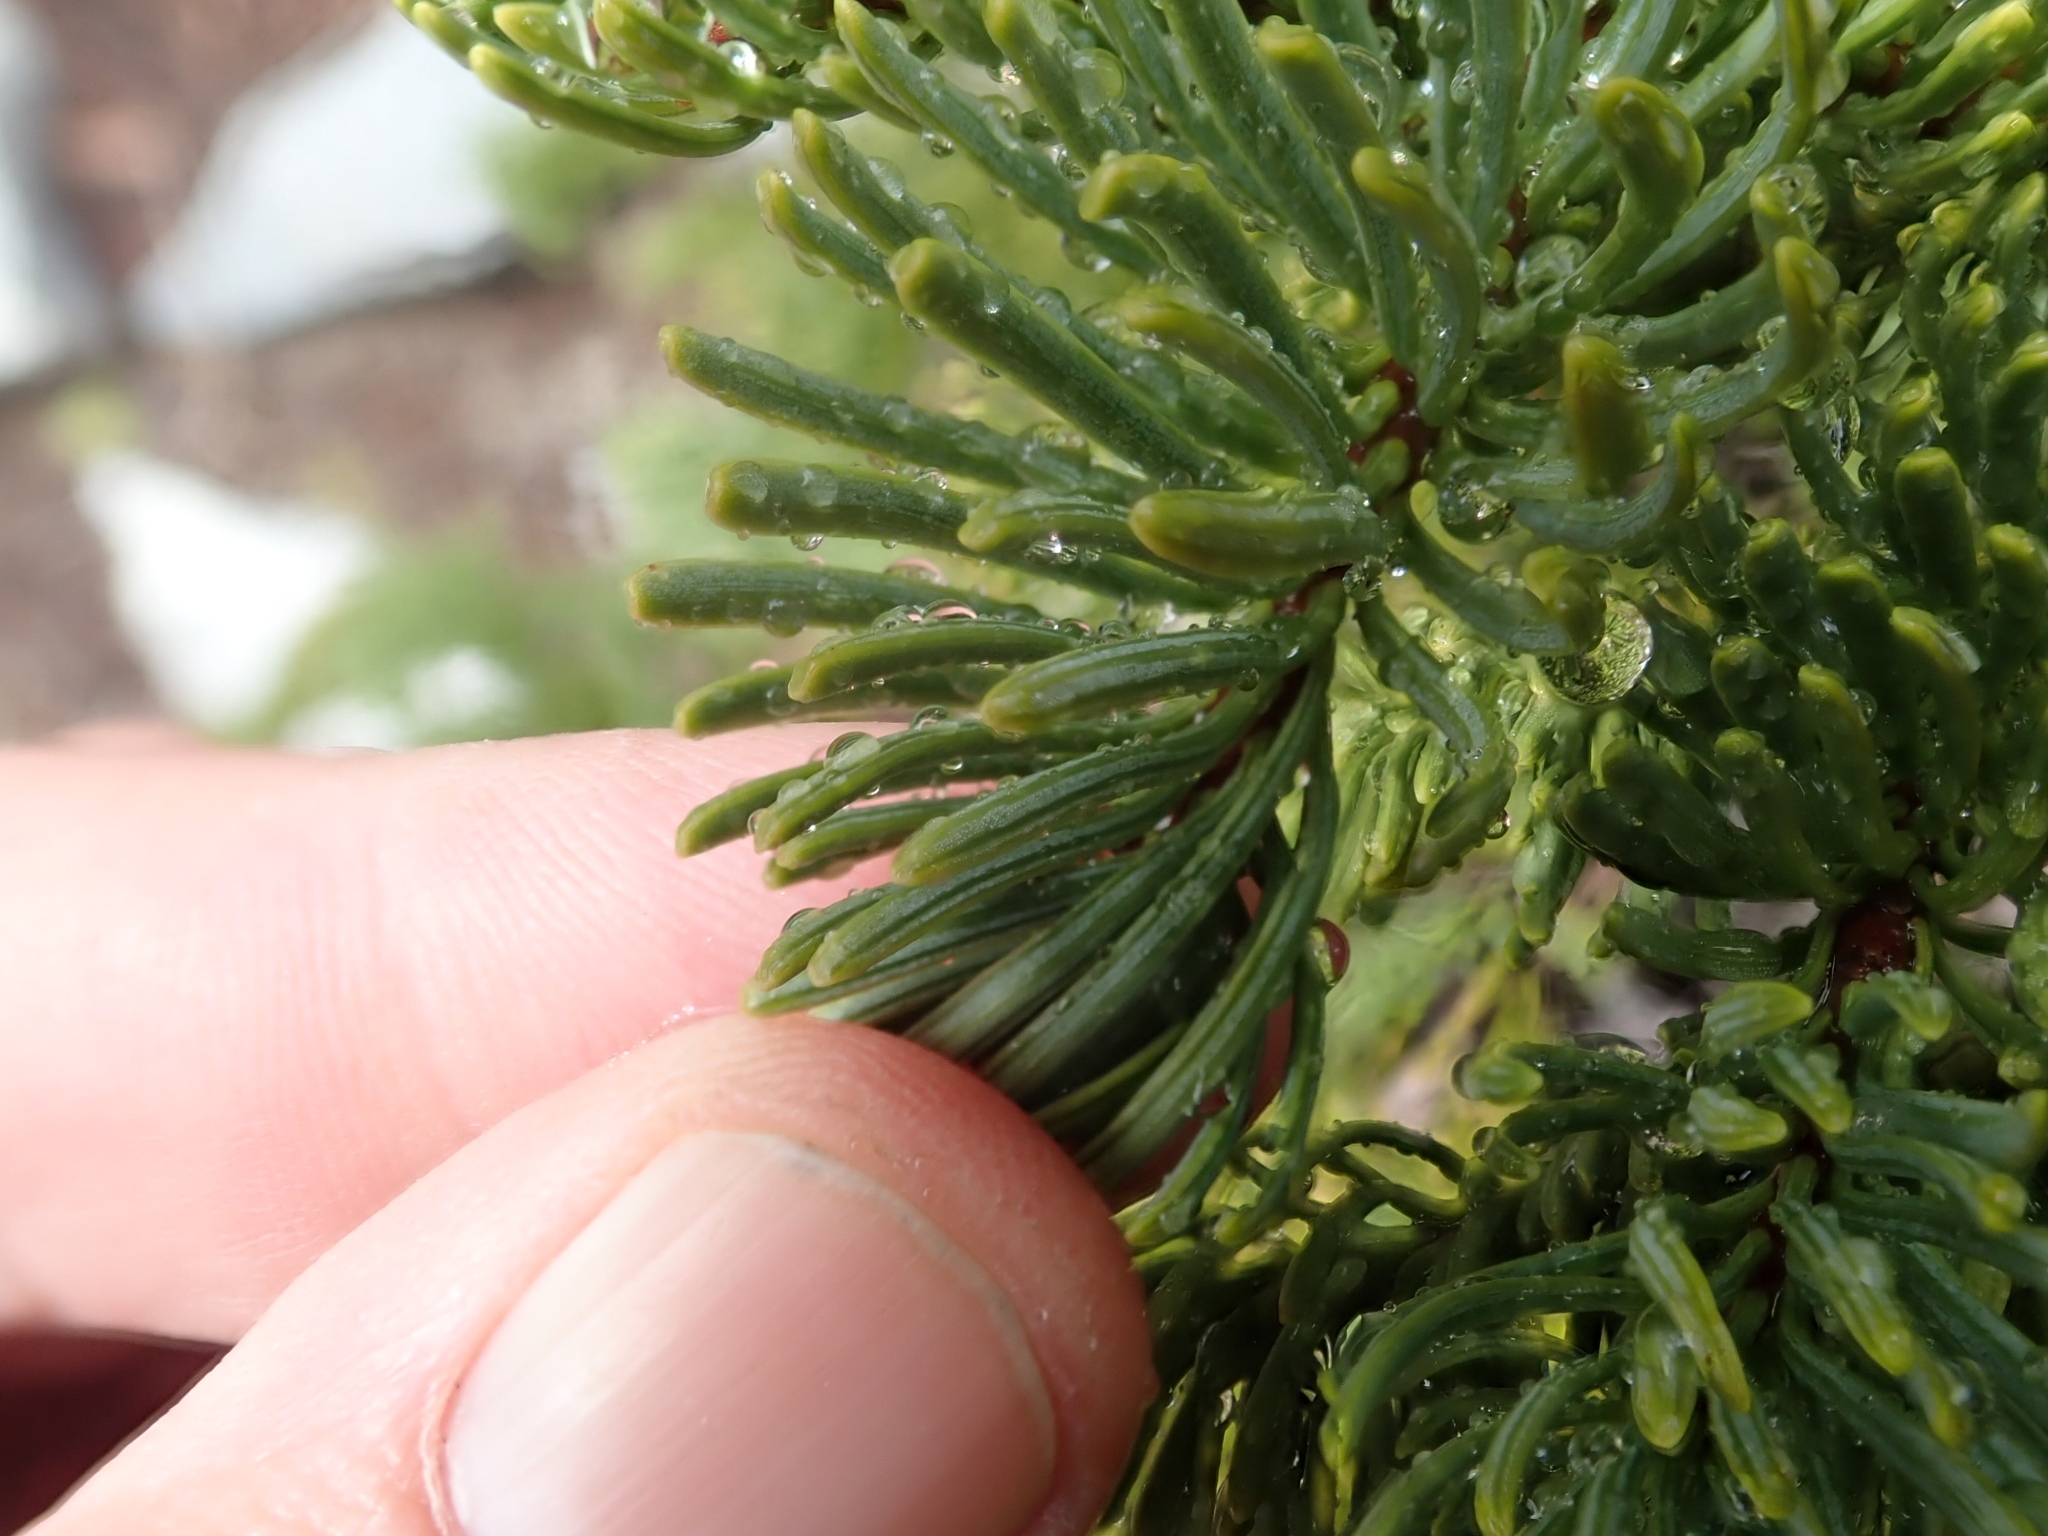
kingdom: Plantae
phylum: Tracheophyta
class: Pinopsida
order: Pinales
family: Pinaceae
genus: Abies
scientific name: Abies magnifica bis
